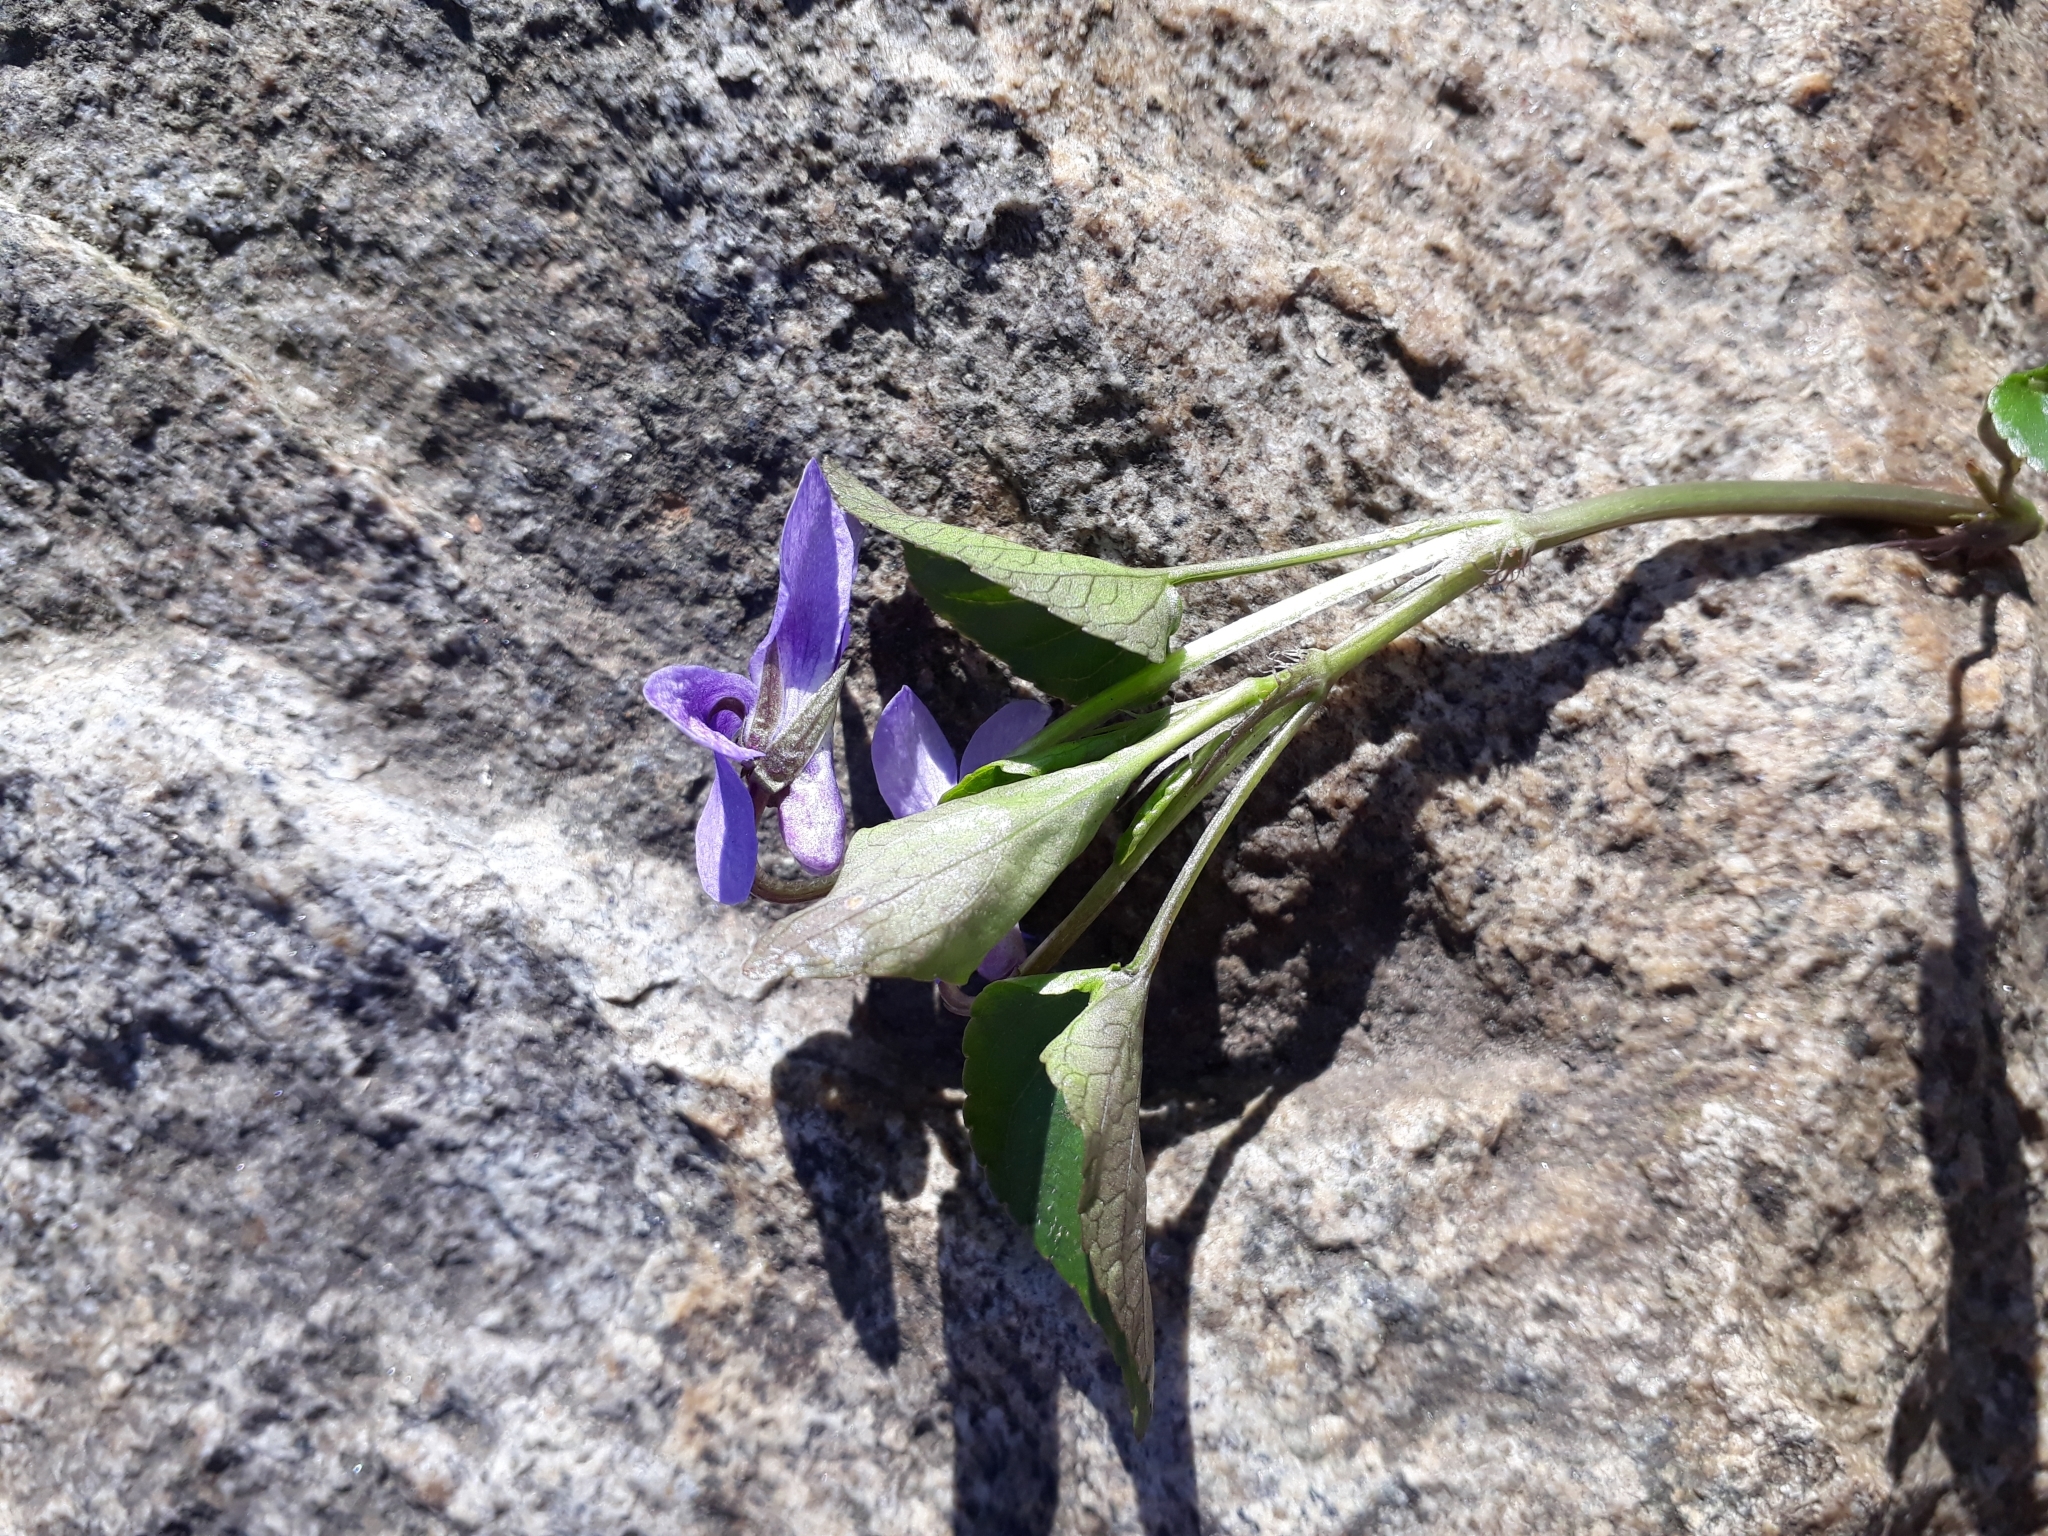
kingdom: Plantae
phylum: Tracheophyta
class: Magnoliopsida
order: Malpighiales
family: Violaceae
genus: Viola
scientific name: Viola reichenbachiana
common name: Early dog-violet
